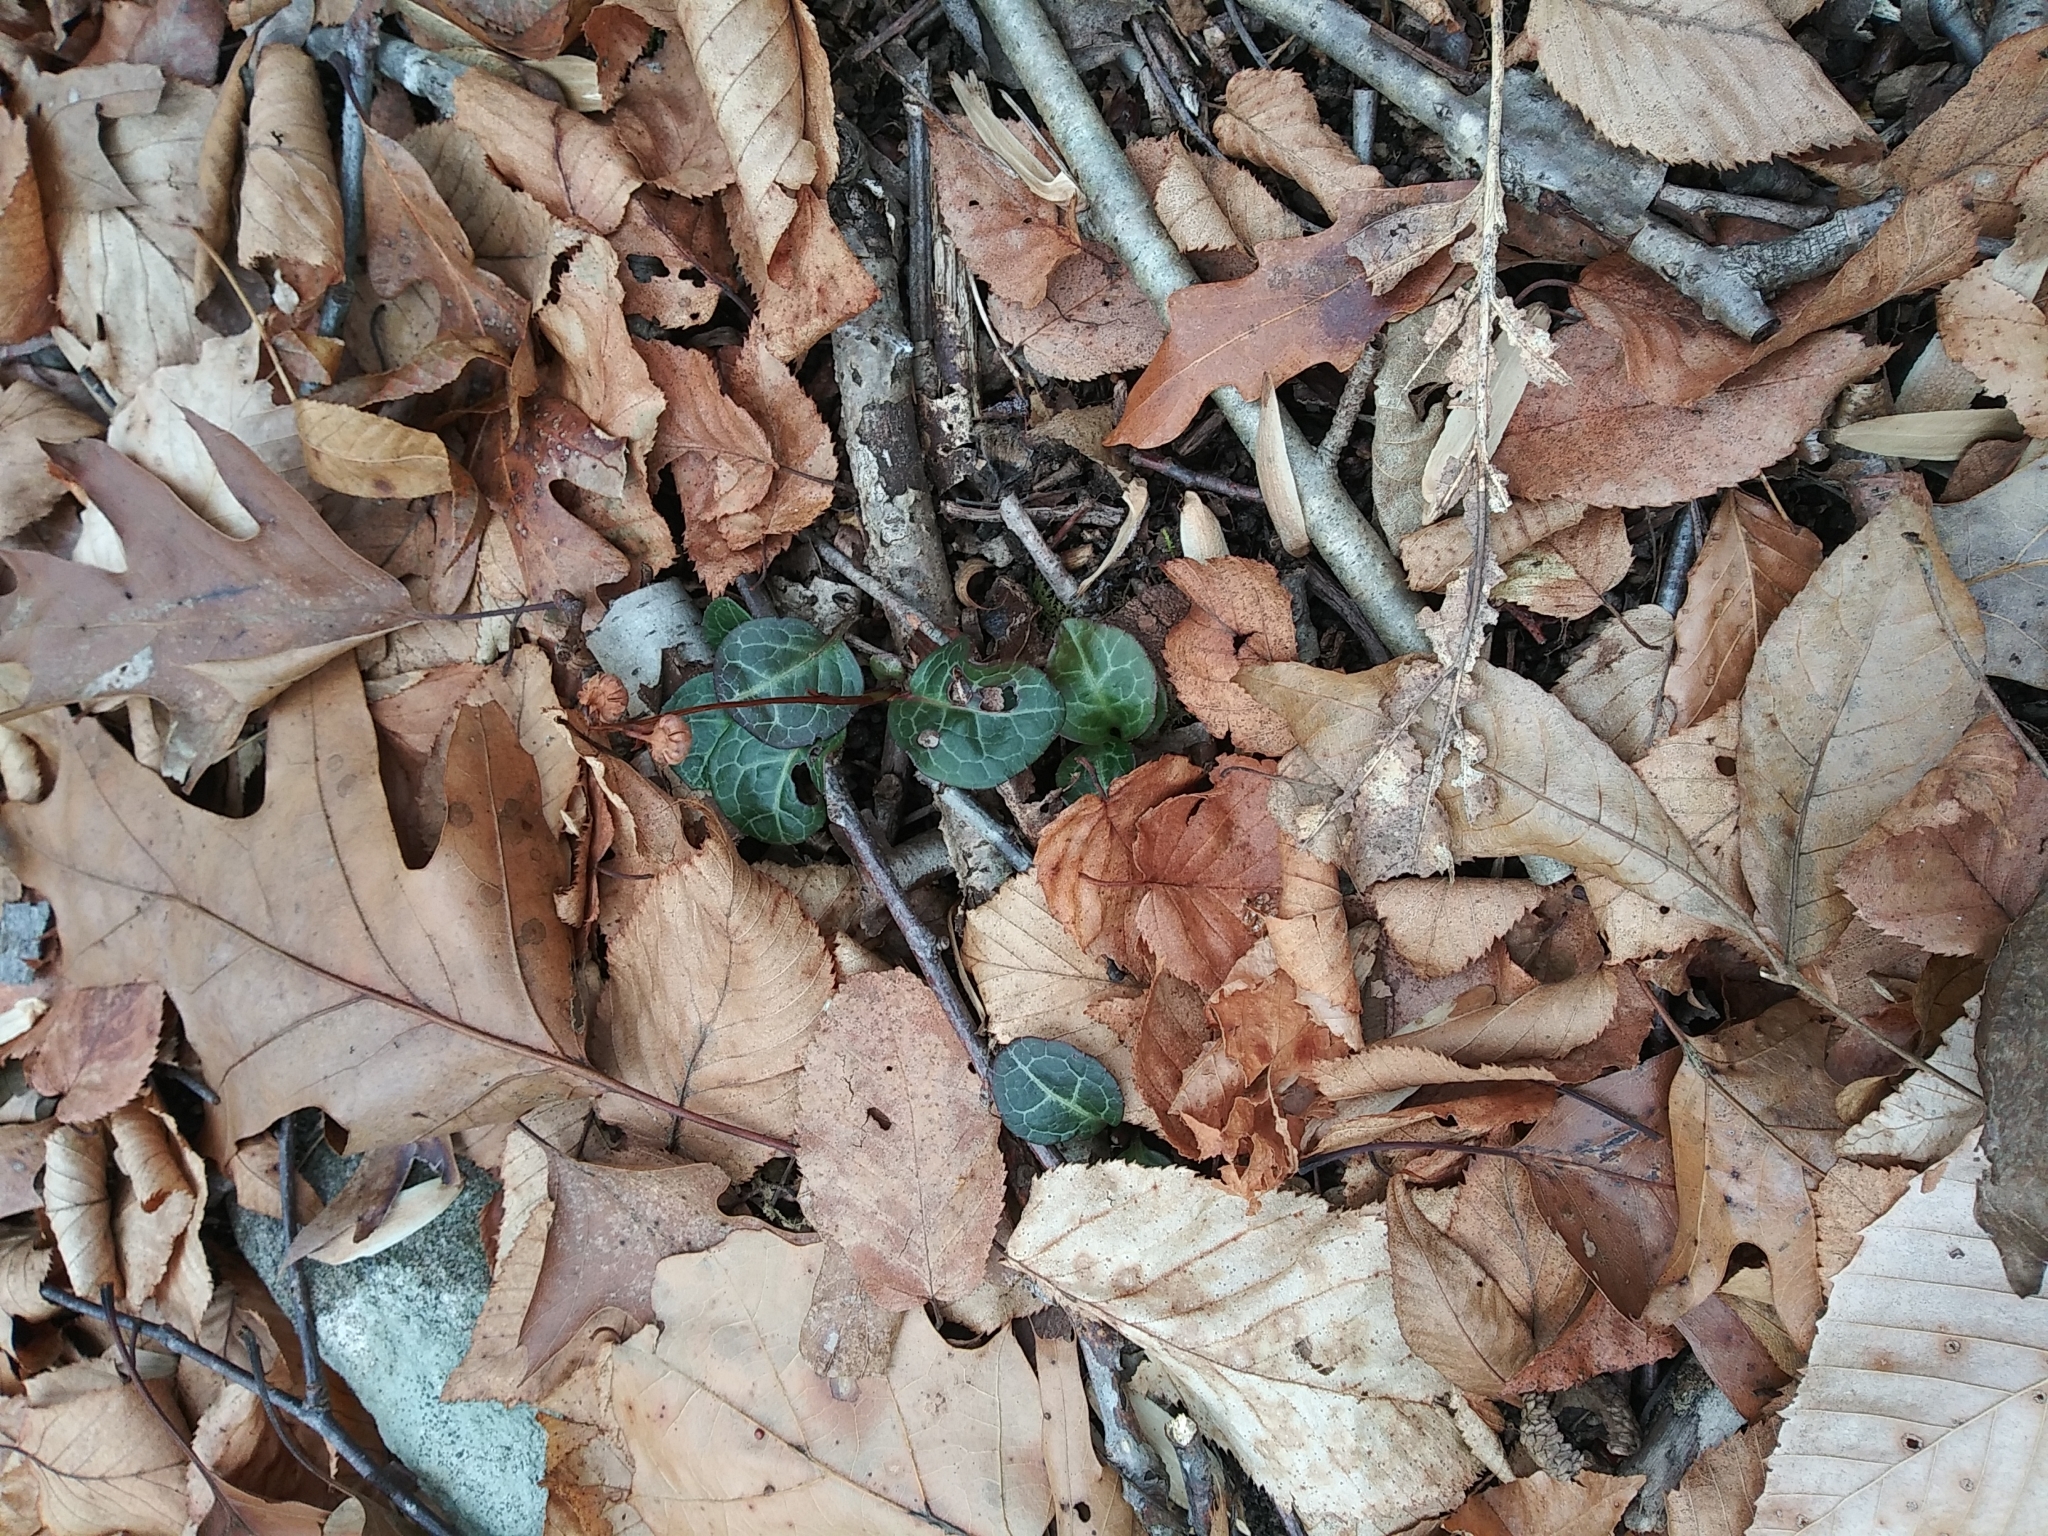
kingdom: Plantae
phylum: Tracheophyta
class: Magnoliopsida
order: Ericales
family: Ericaceae
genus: Pyrola
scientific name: Pyrola americana
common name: American wintergreen
